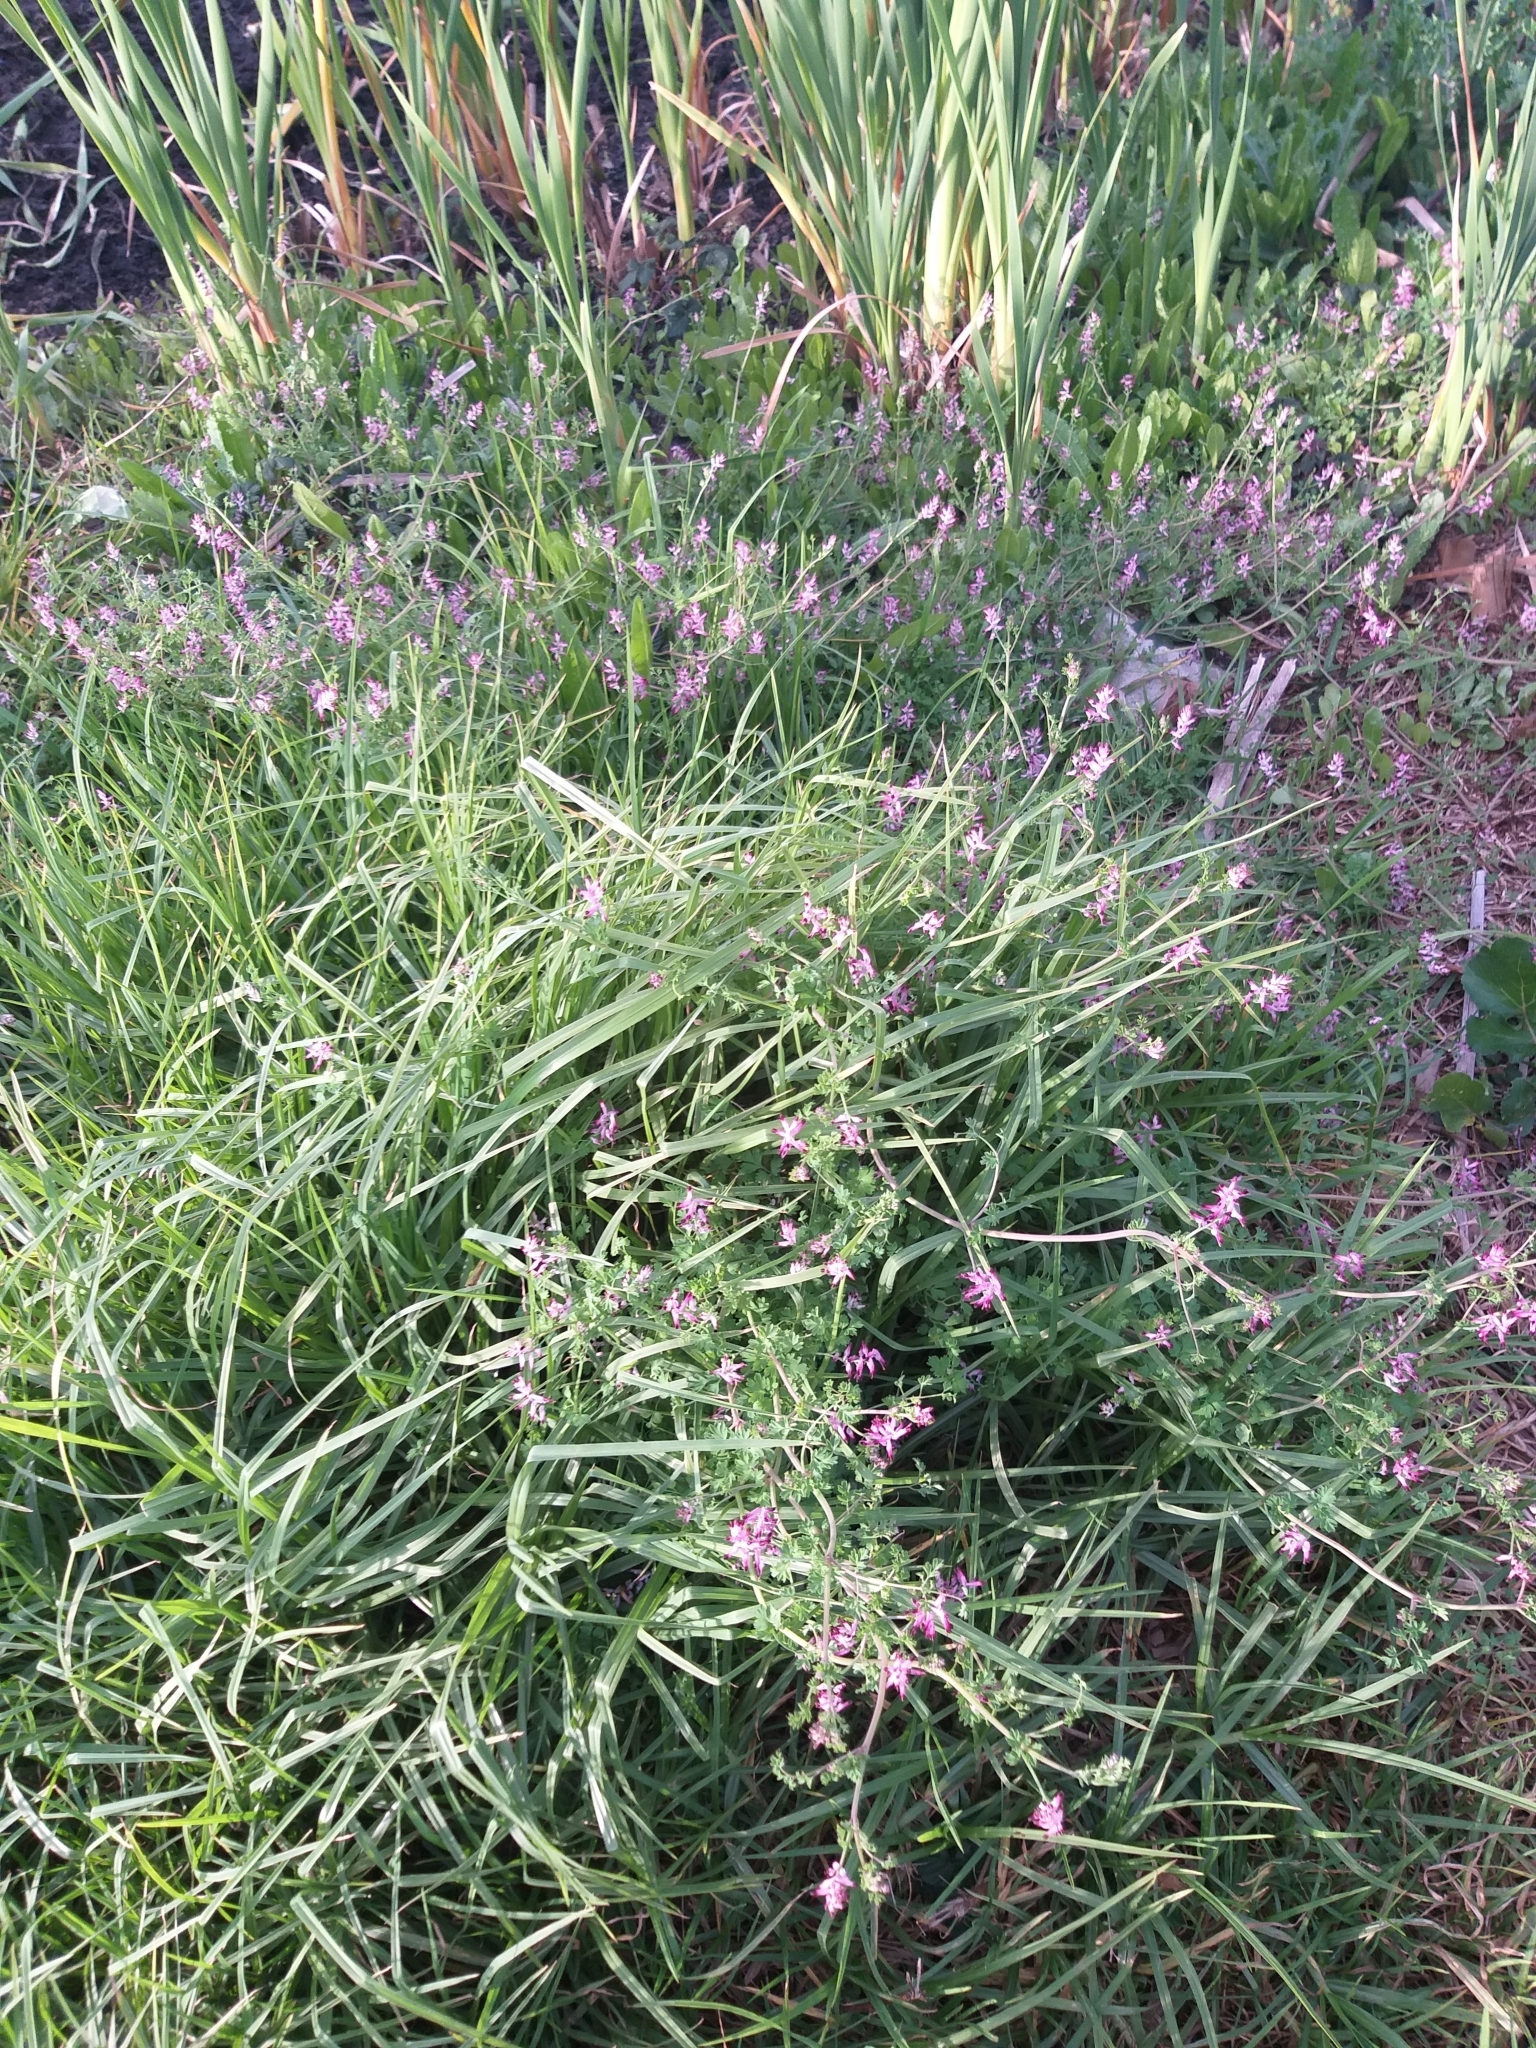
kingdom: Plantae
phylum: Tracheophyta
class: Magnoliopsida
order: Ranunculales
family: Papaveraceae
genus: Fumaria
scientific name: Fumaria muralis
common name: Common ramping-fumitory
